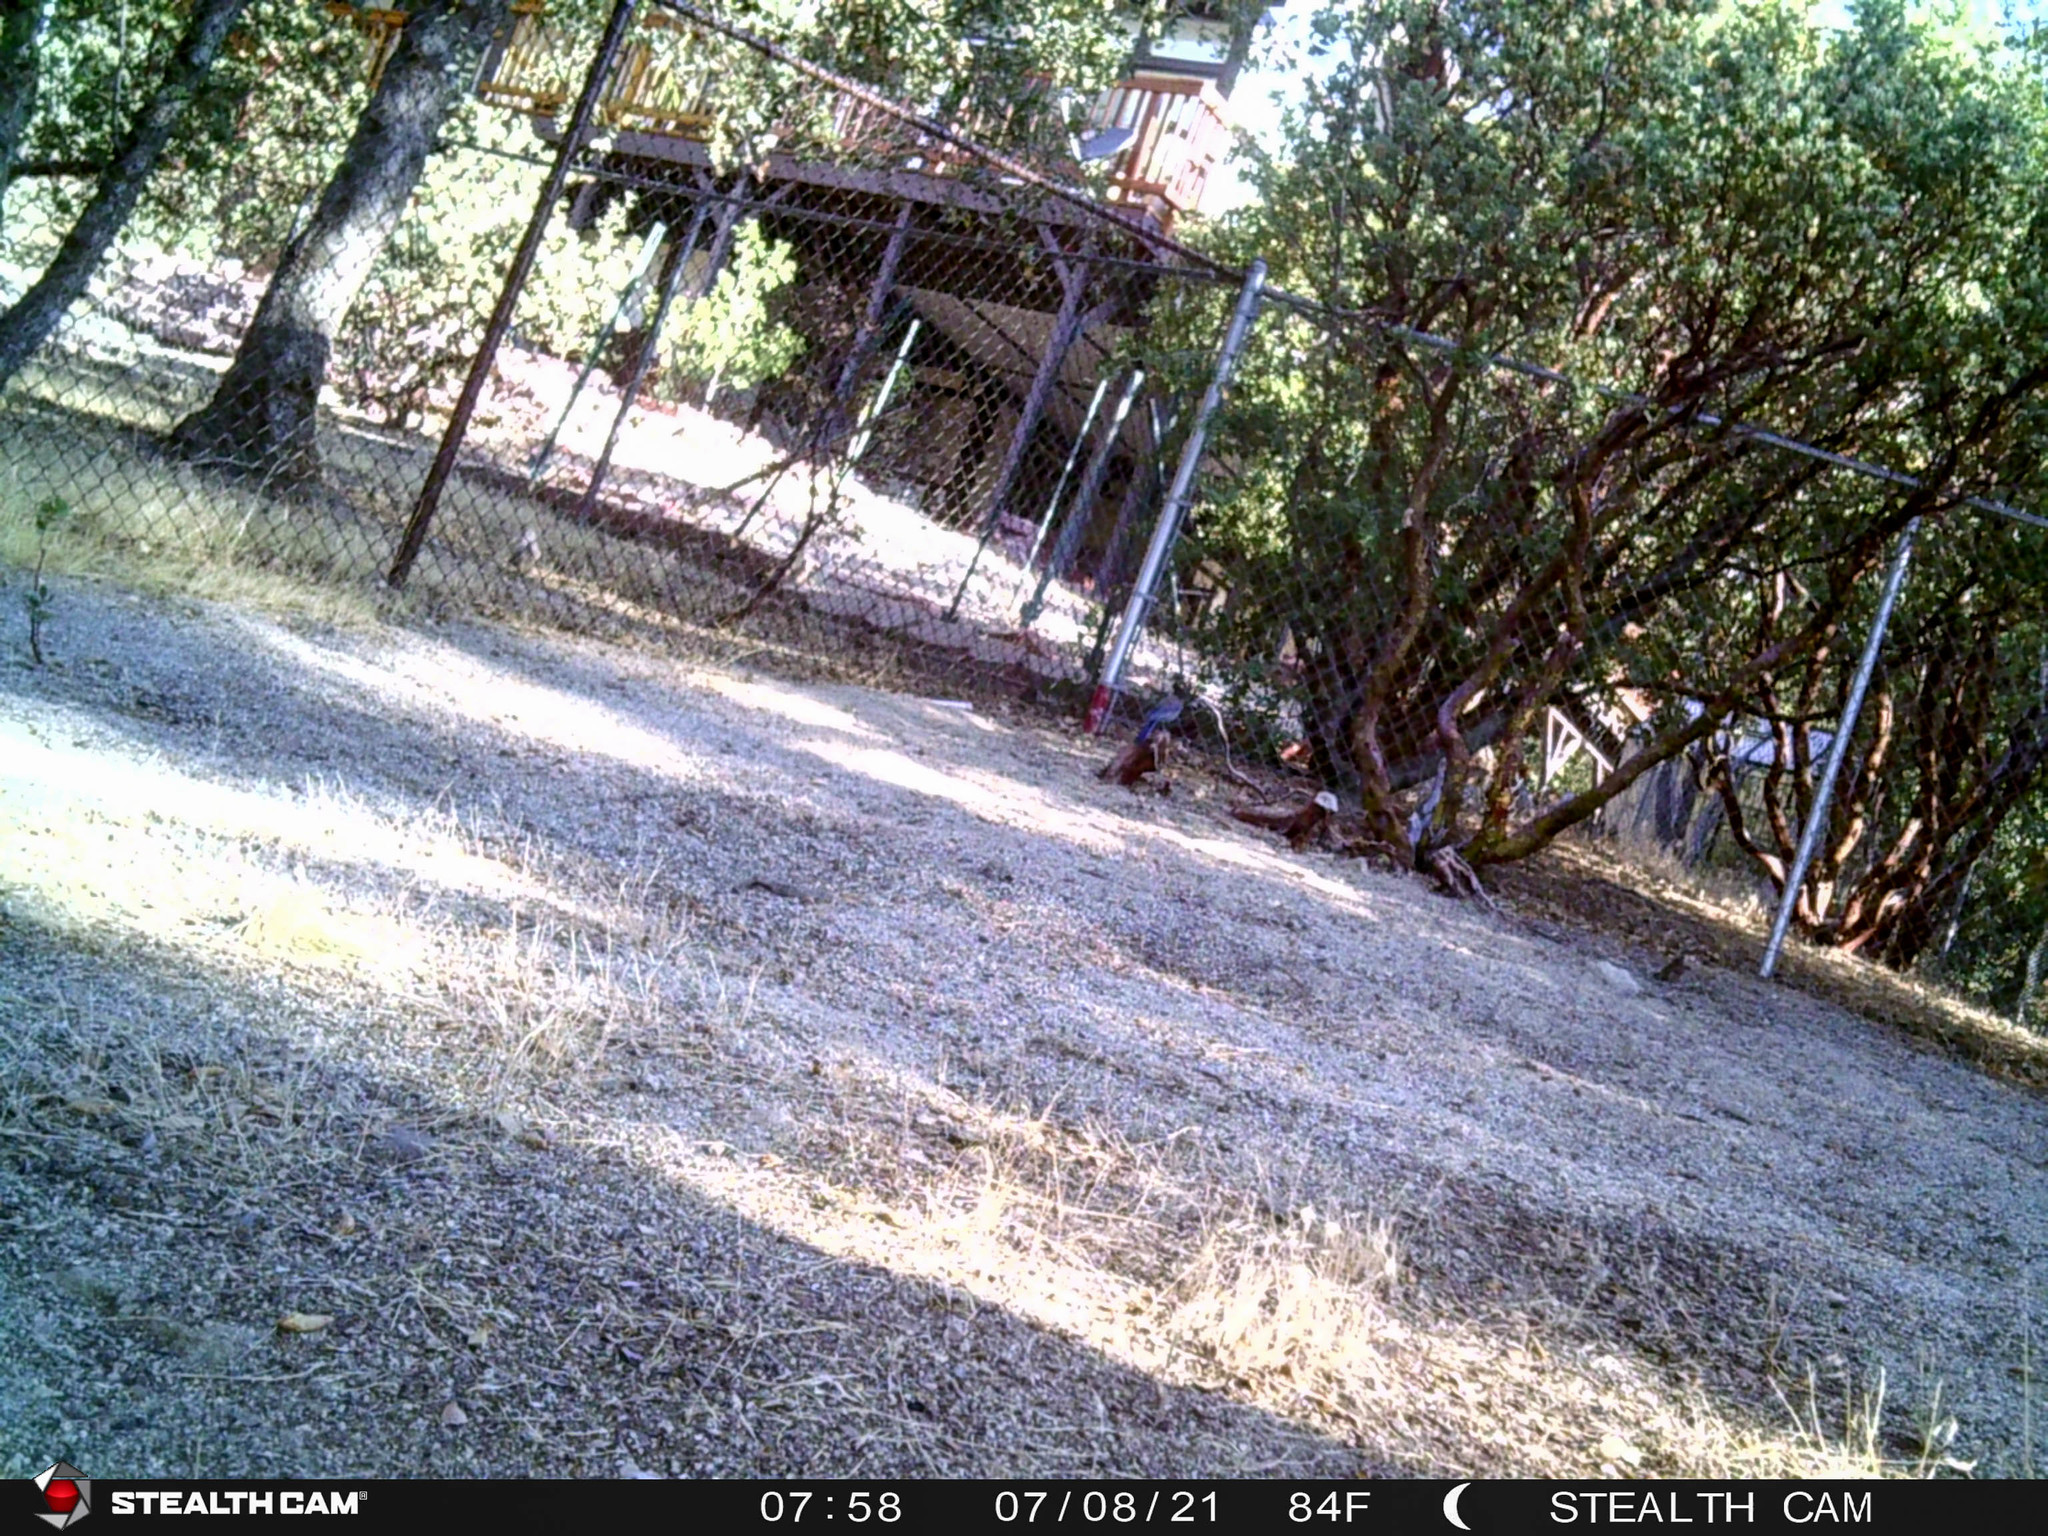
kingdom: Animalia
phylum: Chordata
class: Aves
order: Passeriformes
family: Corvidae
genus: Cyanocitta
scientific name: Cyanocitta stelleri
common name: Steller's jay
